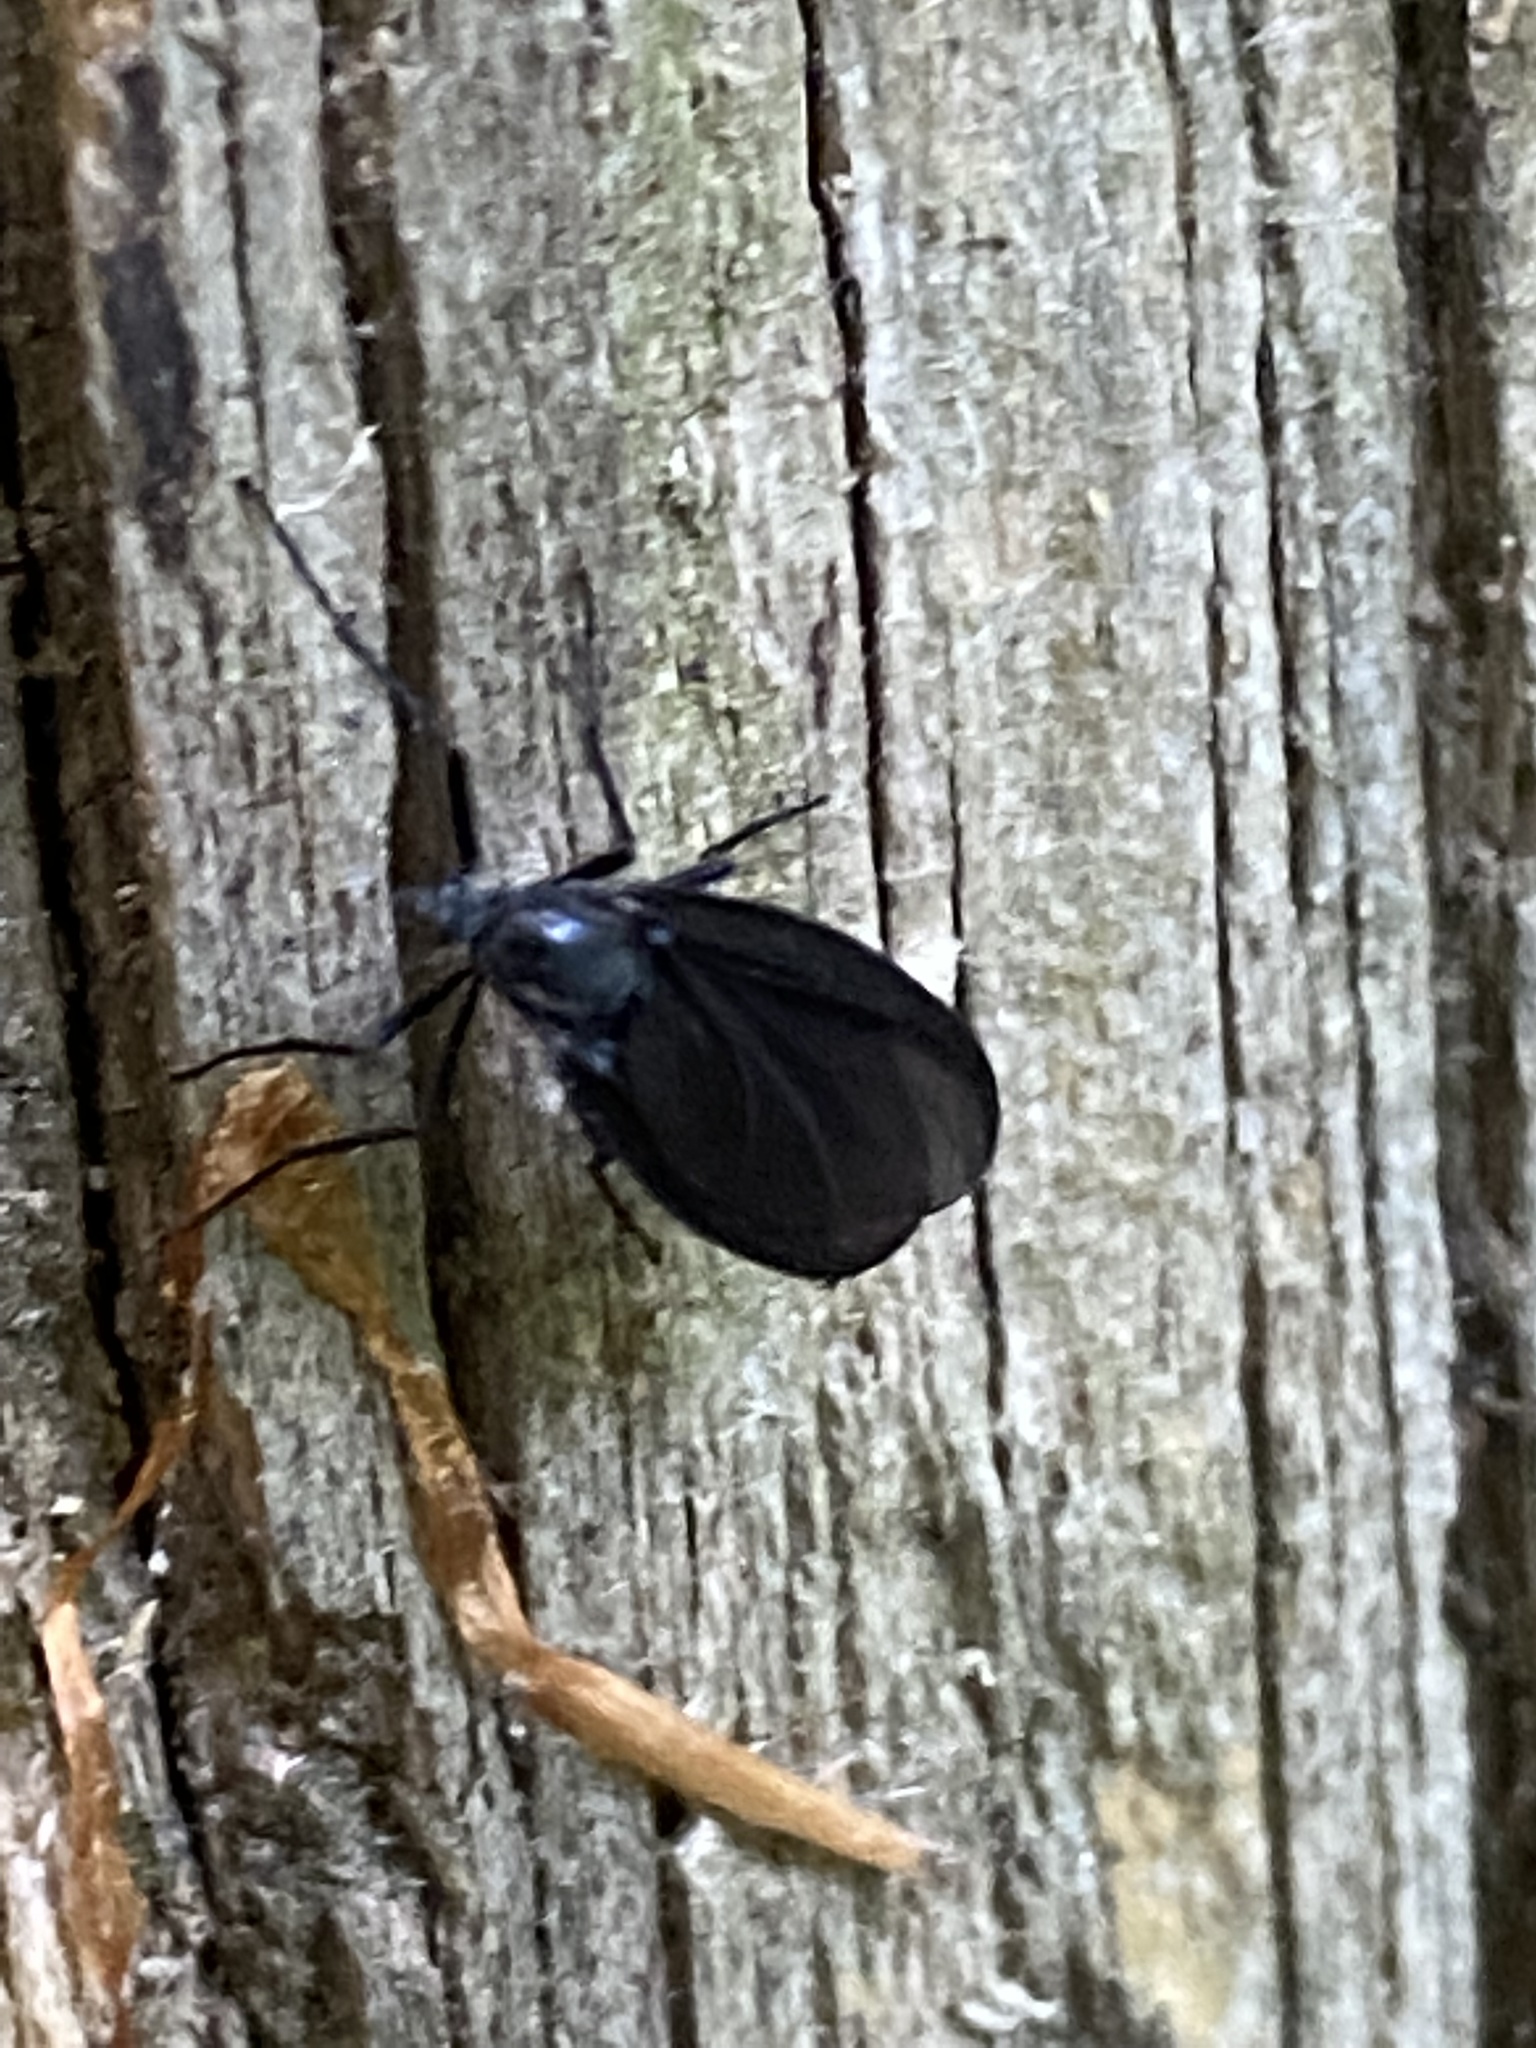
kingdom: Animalia
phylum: Arthropoda
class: Insecta
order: Diptera
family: Bibionidae
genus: Penthetria
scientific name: Penthetria heteroptera
